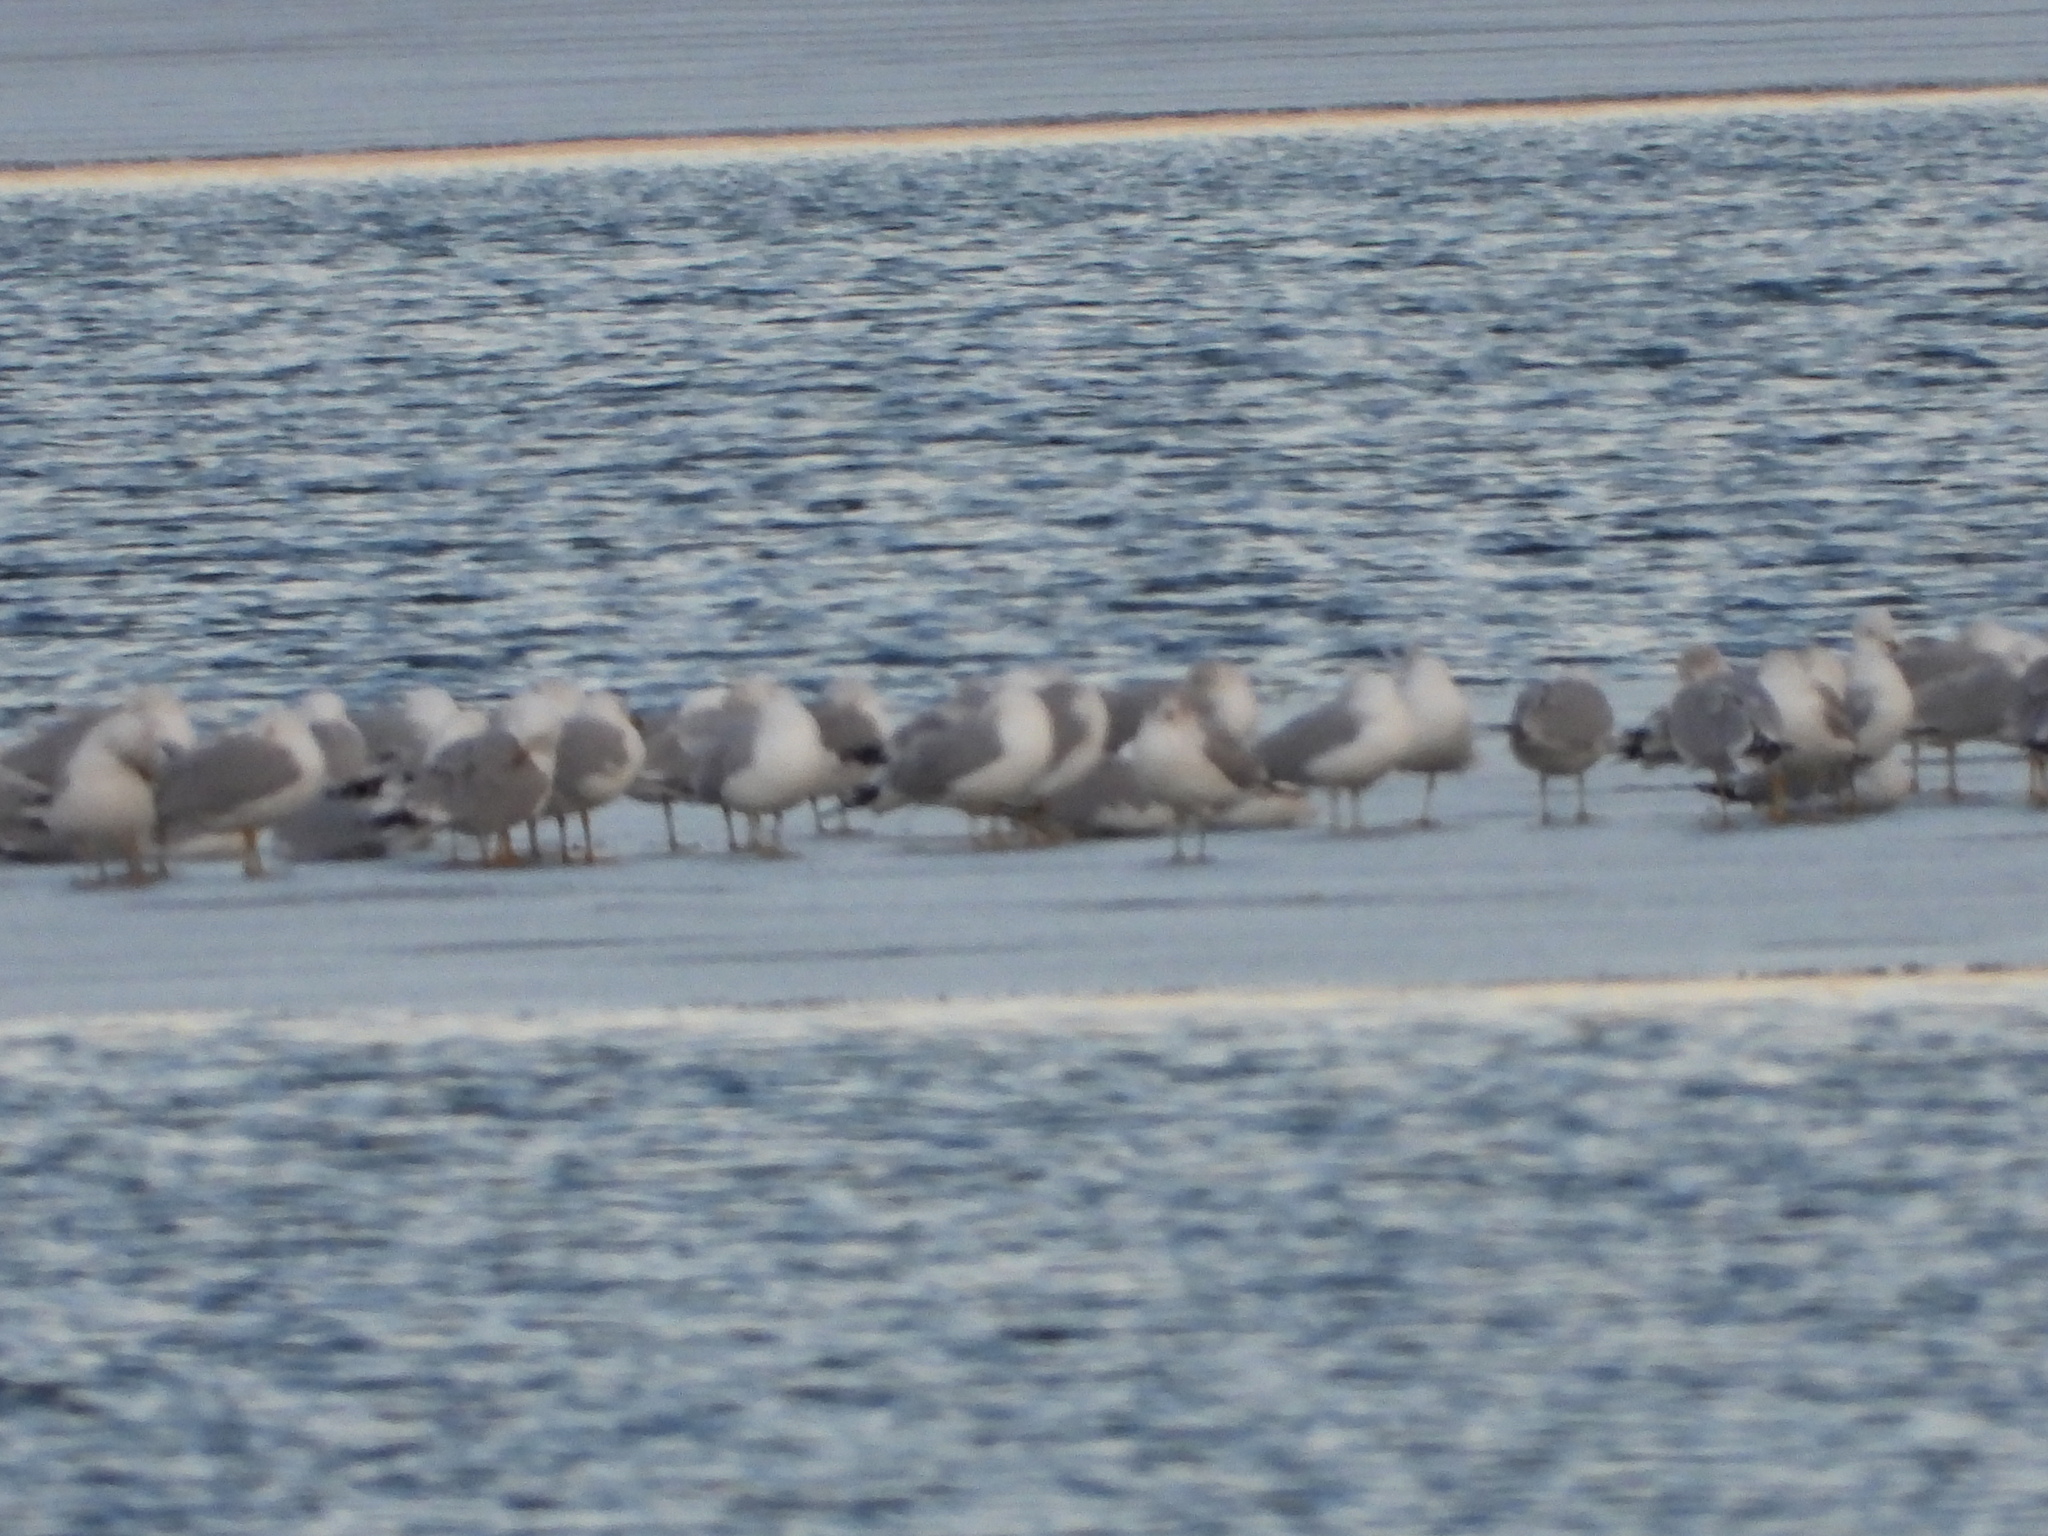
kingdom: Animalia
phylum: Chordata
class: Aves
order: Charadriiformes
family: Laridae
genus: Larus
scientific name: Larus delawarensis
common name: Ring-billed gull
